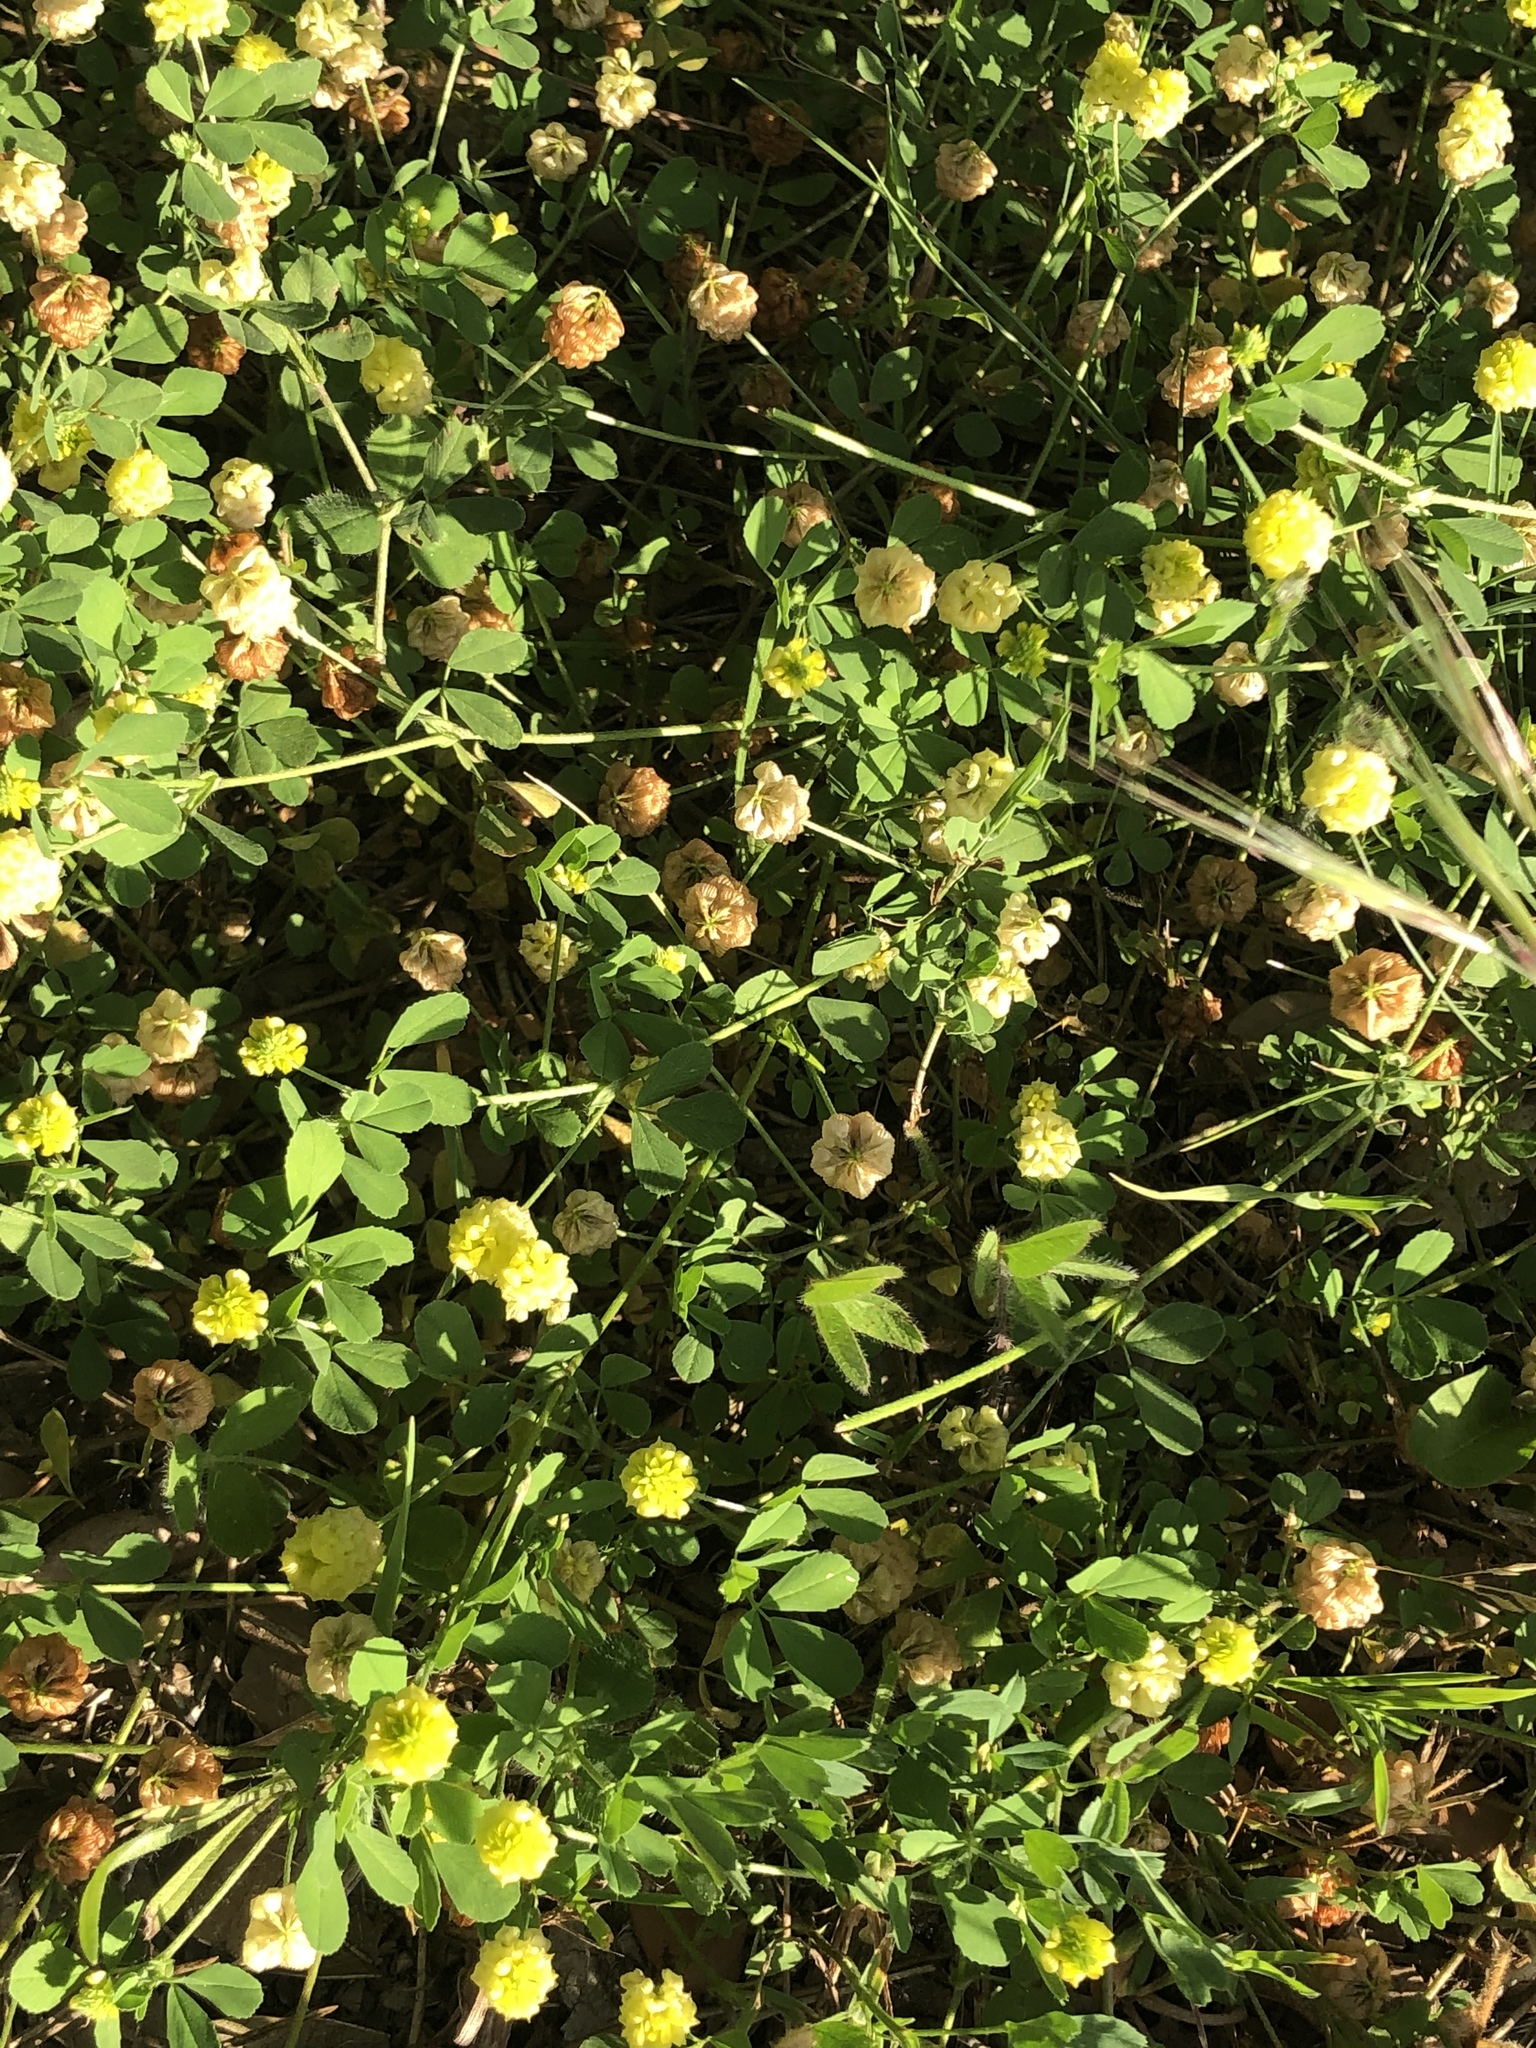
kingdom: Plantae
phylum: Tracheophyta
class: Magnoliopsida
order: Fabales
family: Fabaceae
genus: Trifolium
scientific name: Trifolium campestre
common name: Field clover
